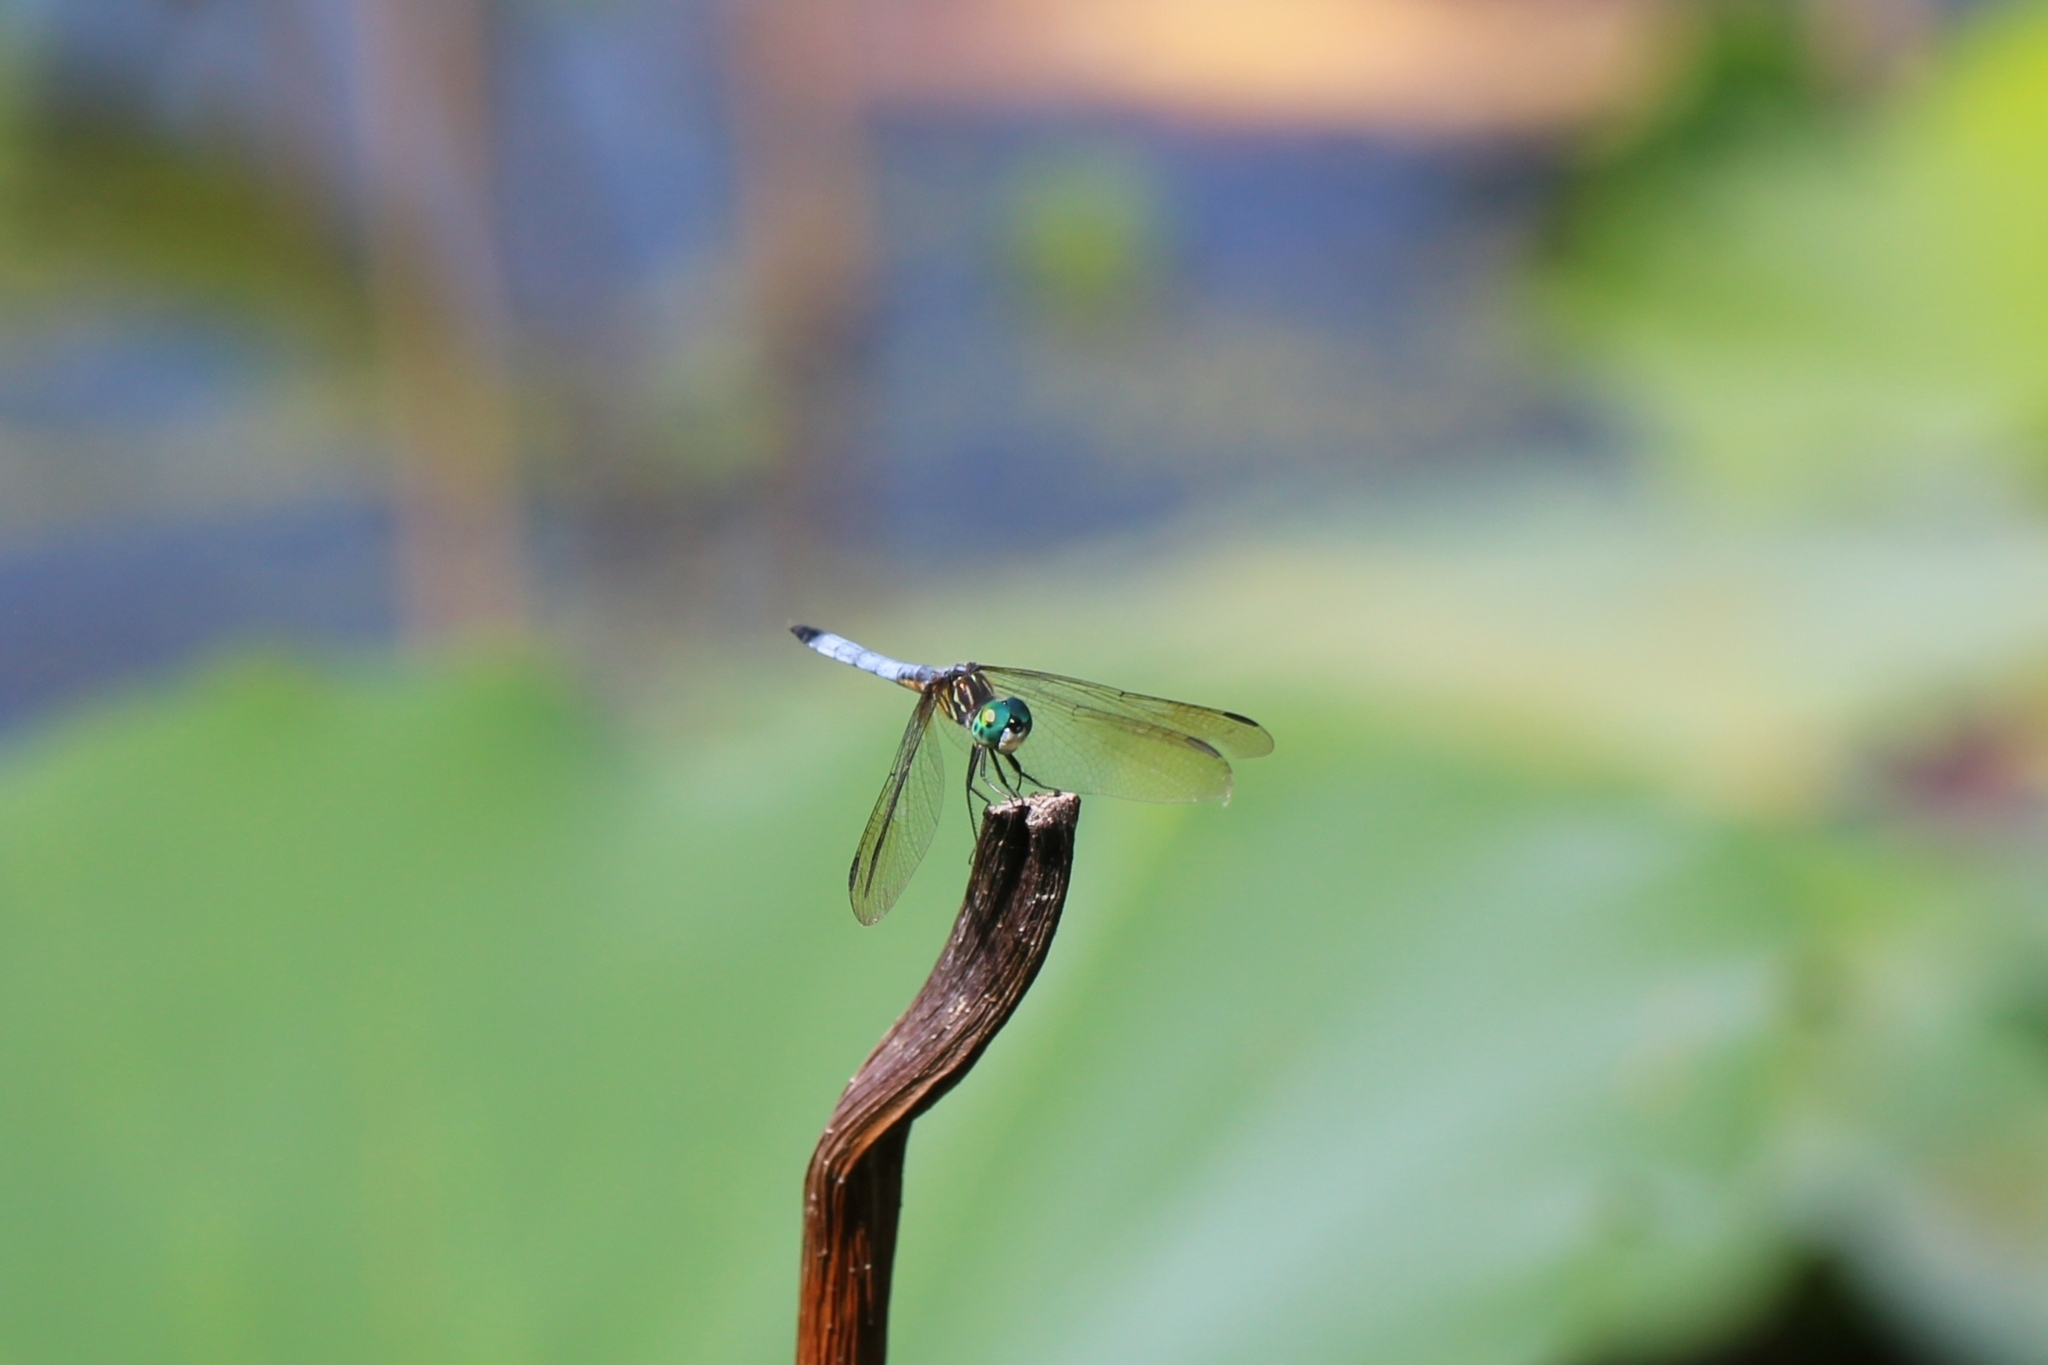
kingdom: Animalia
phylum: Arthropoda
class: Insecta
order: Odonata
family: Libellulidae
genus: Pachydiplax
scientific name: Pachydiplax longipennis
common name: Blue dasher
